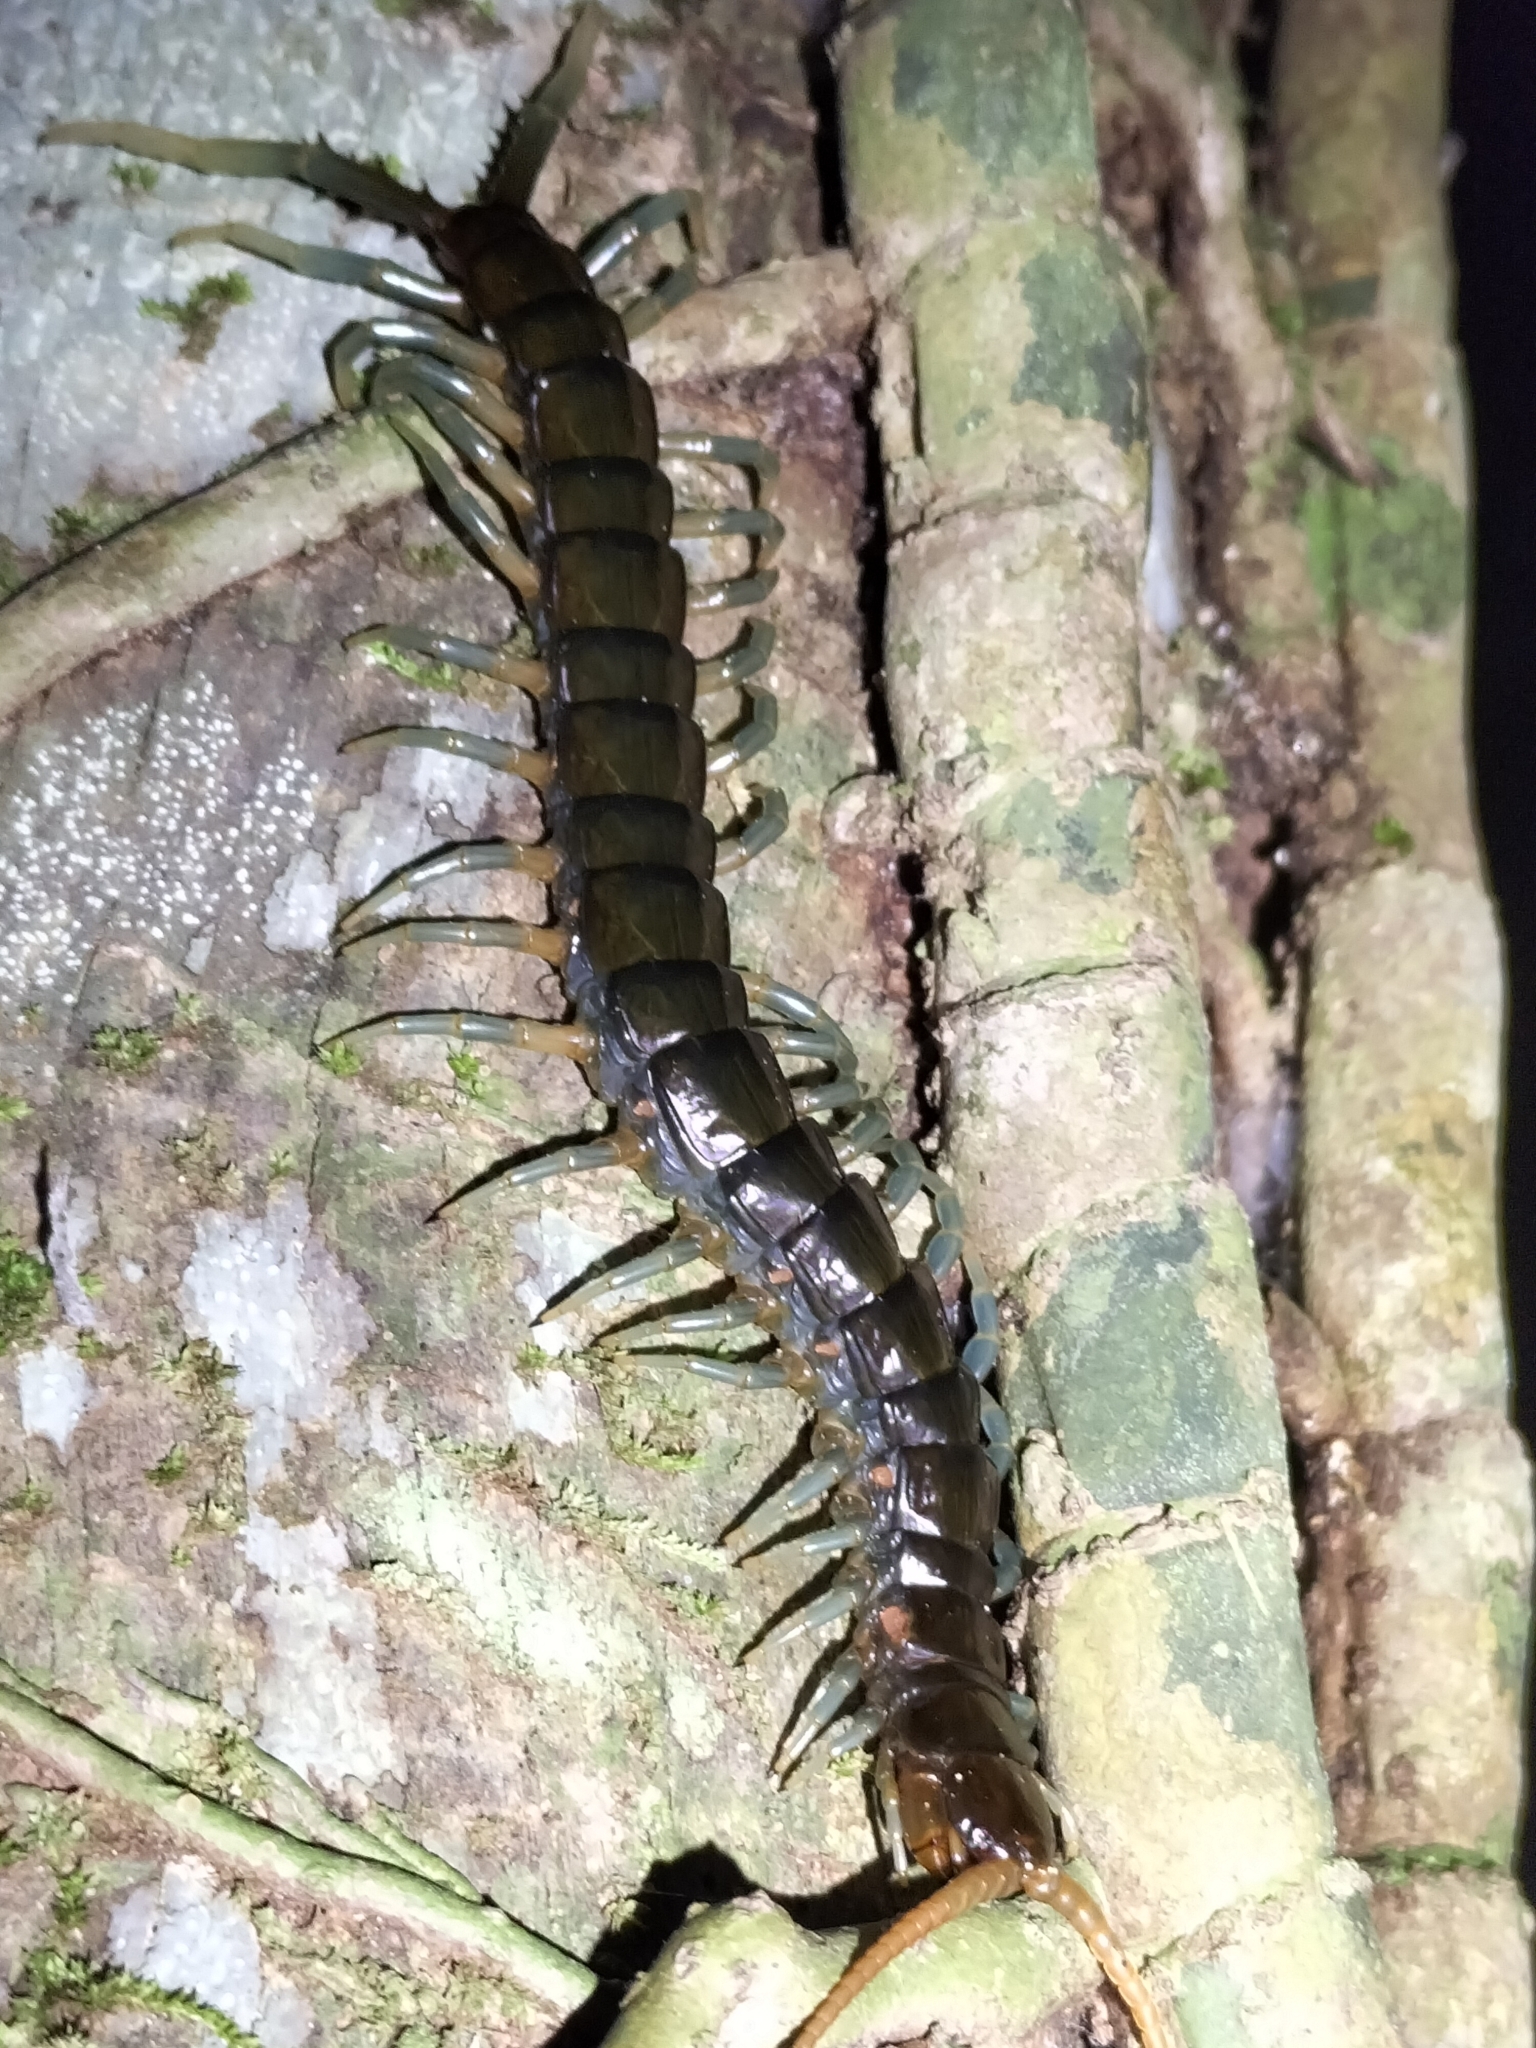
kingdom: Animalia
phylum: Arthropoda
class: Chilopoda
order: Scolopendromorpha
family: Scolopendridae
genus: Ethmostigmus
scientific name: Ethmostigmus rubripes
